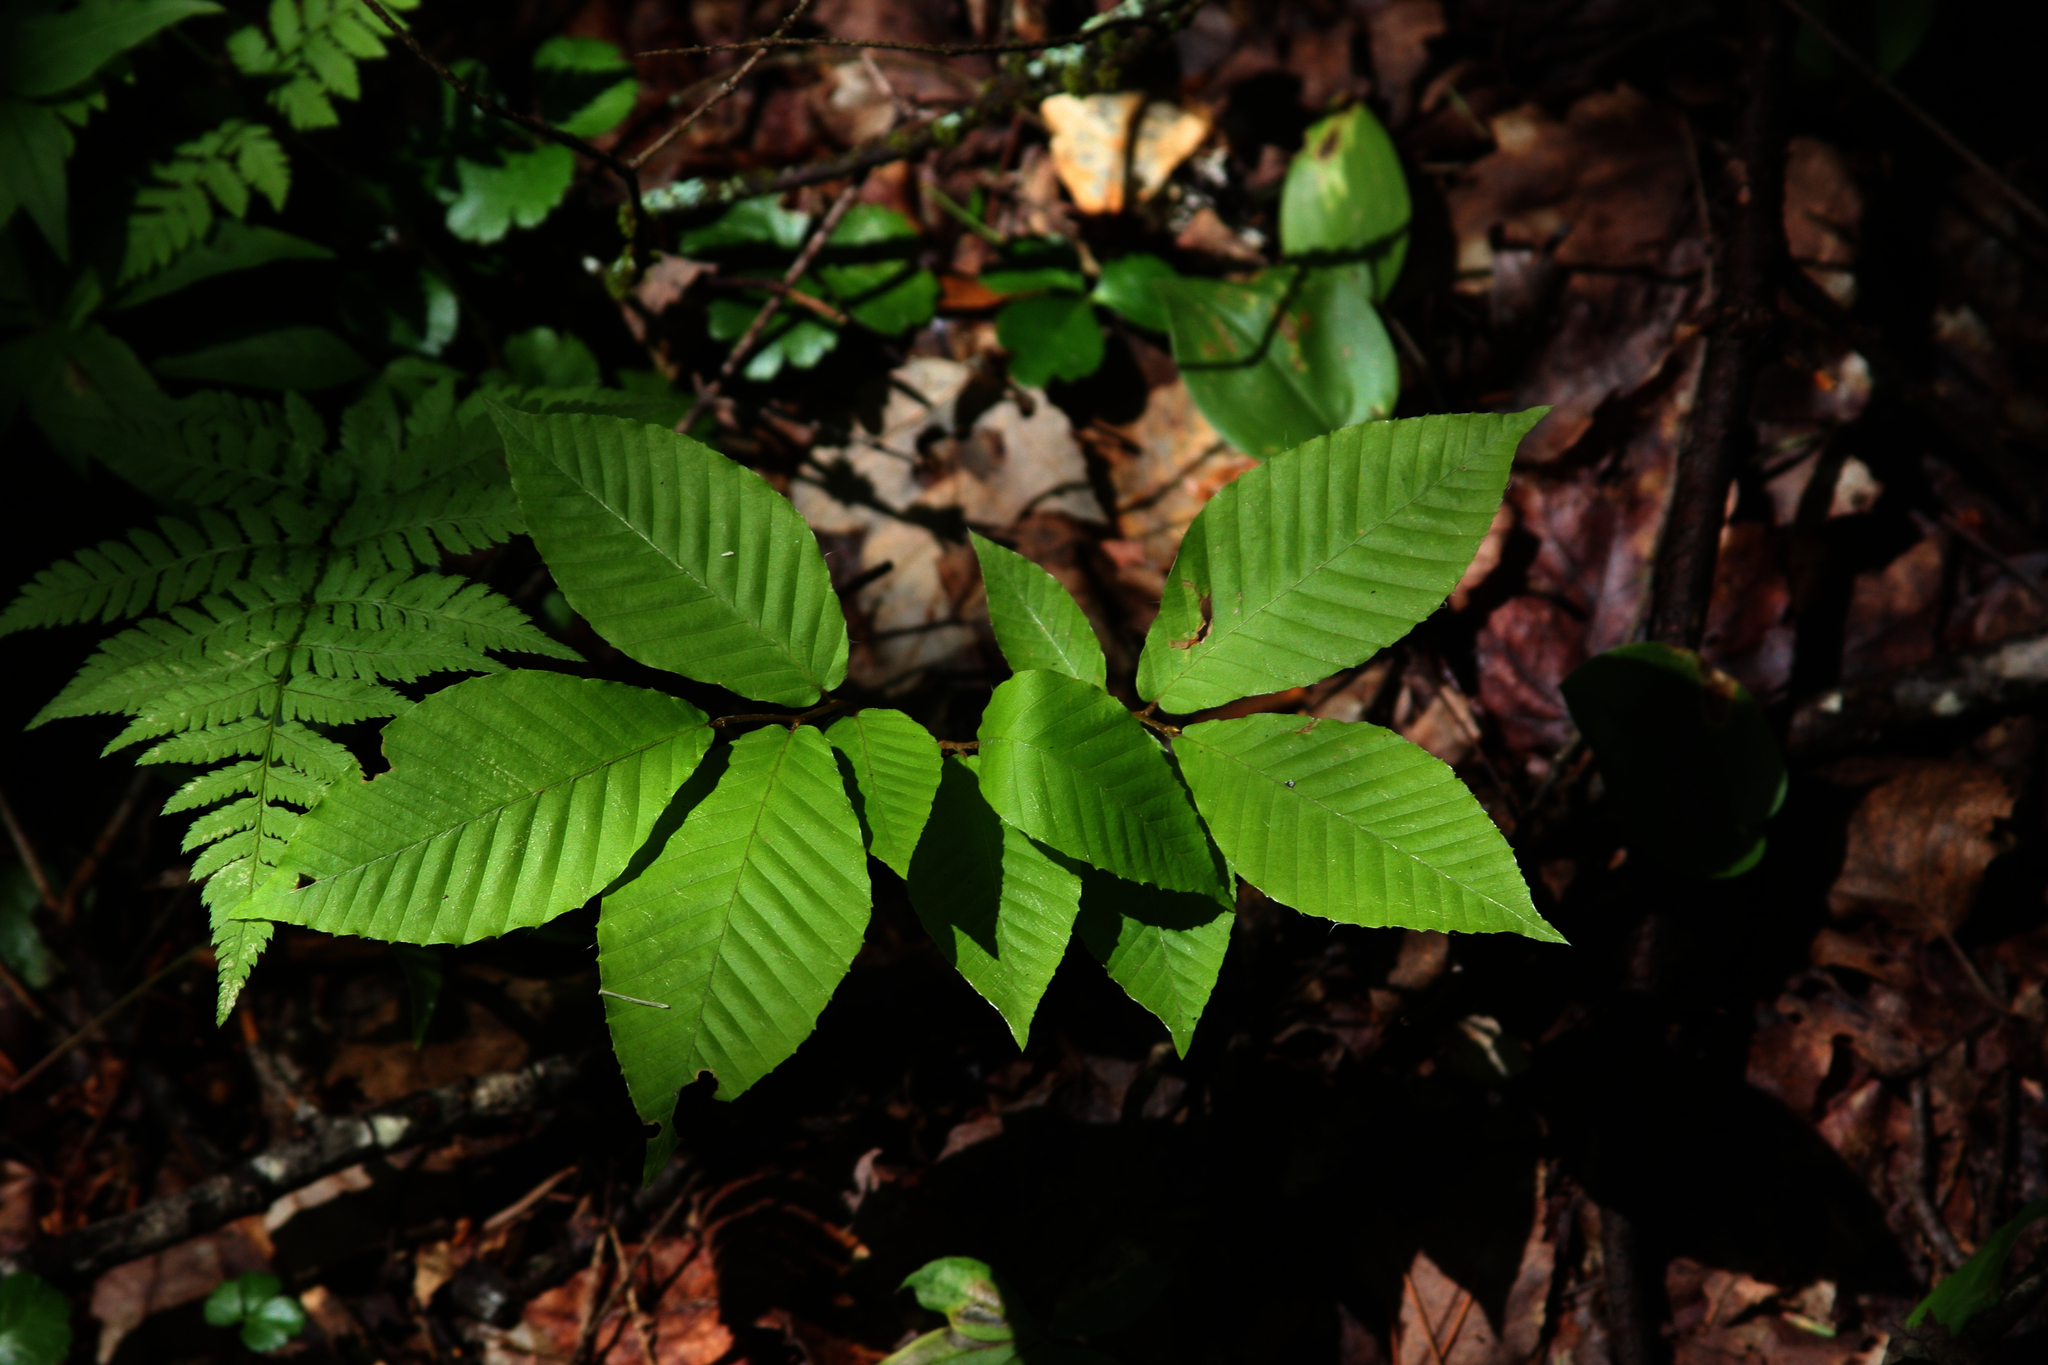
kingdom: Plantae
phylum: Tracheophyta
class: Magnoliopsida
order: Fagales
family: Fagaceae
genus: Fagus
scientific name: Fagus grandifolia
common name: American beech
